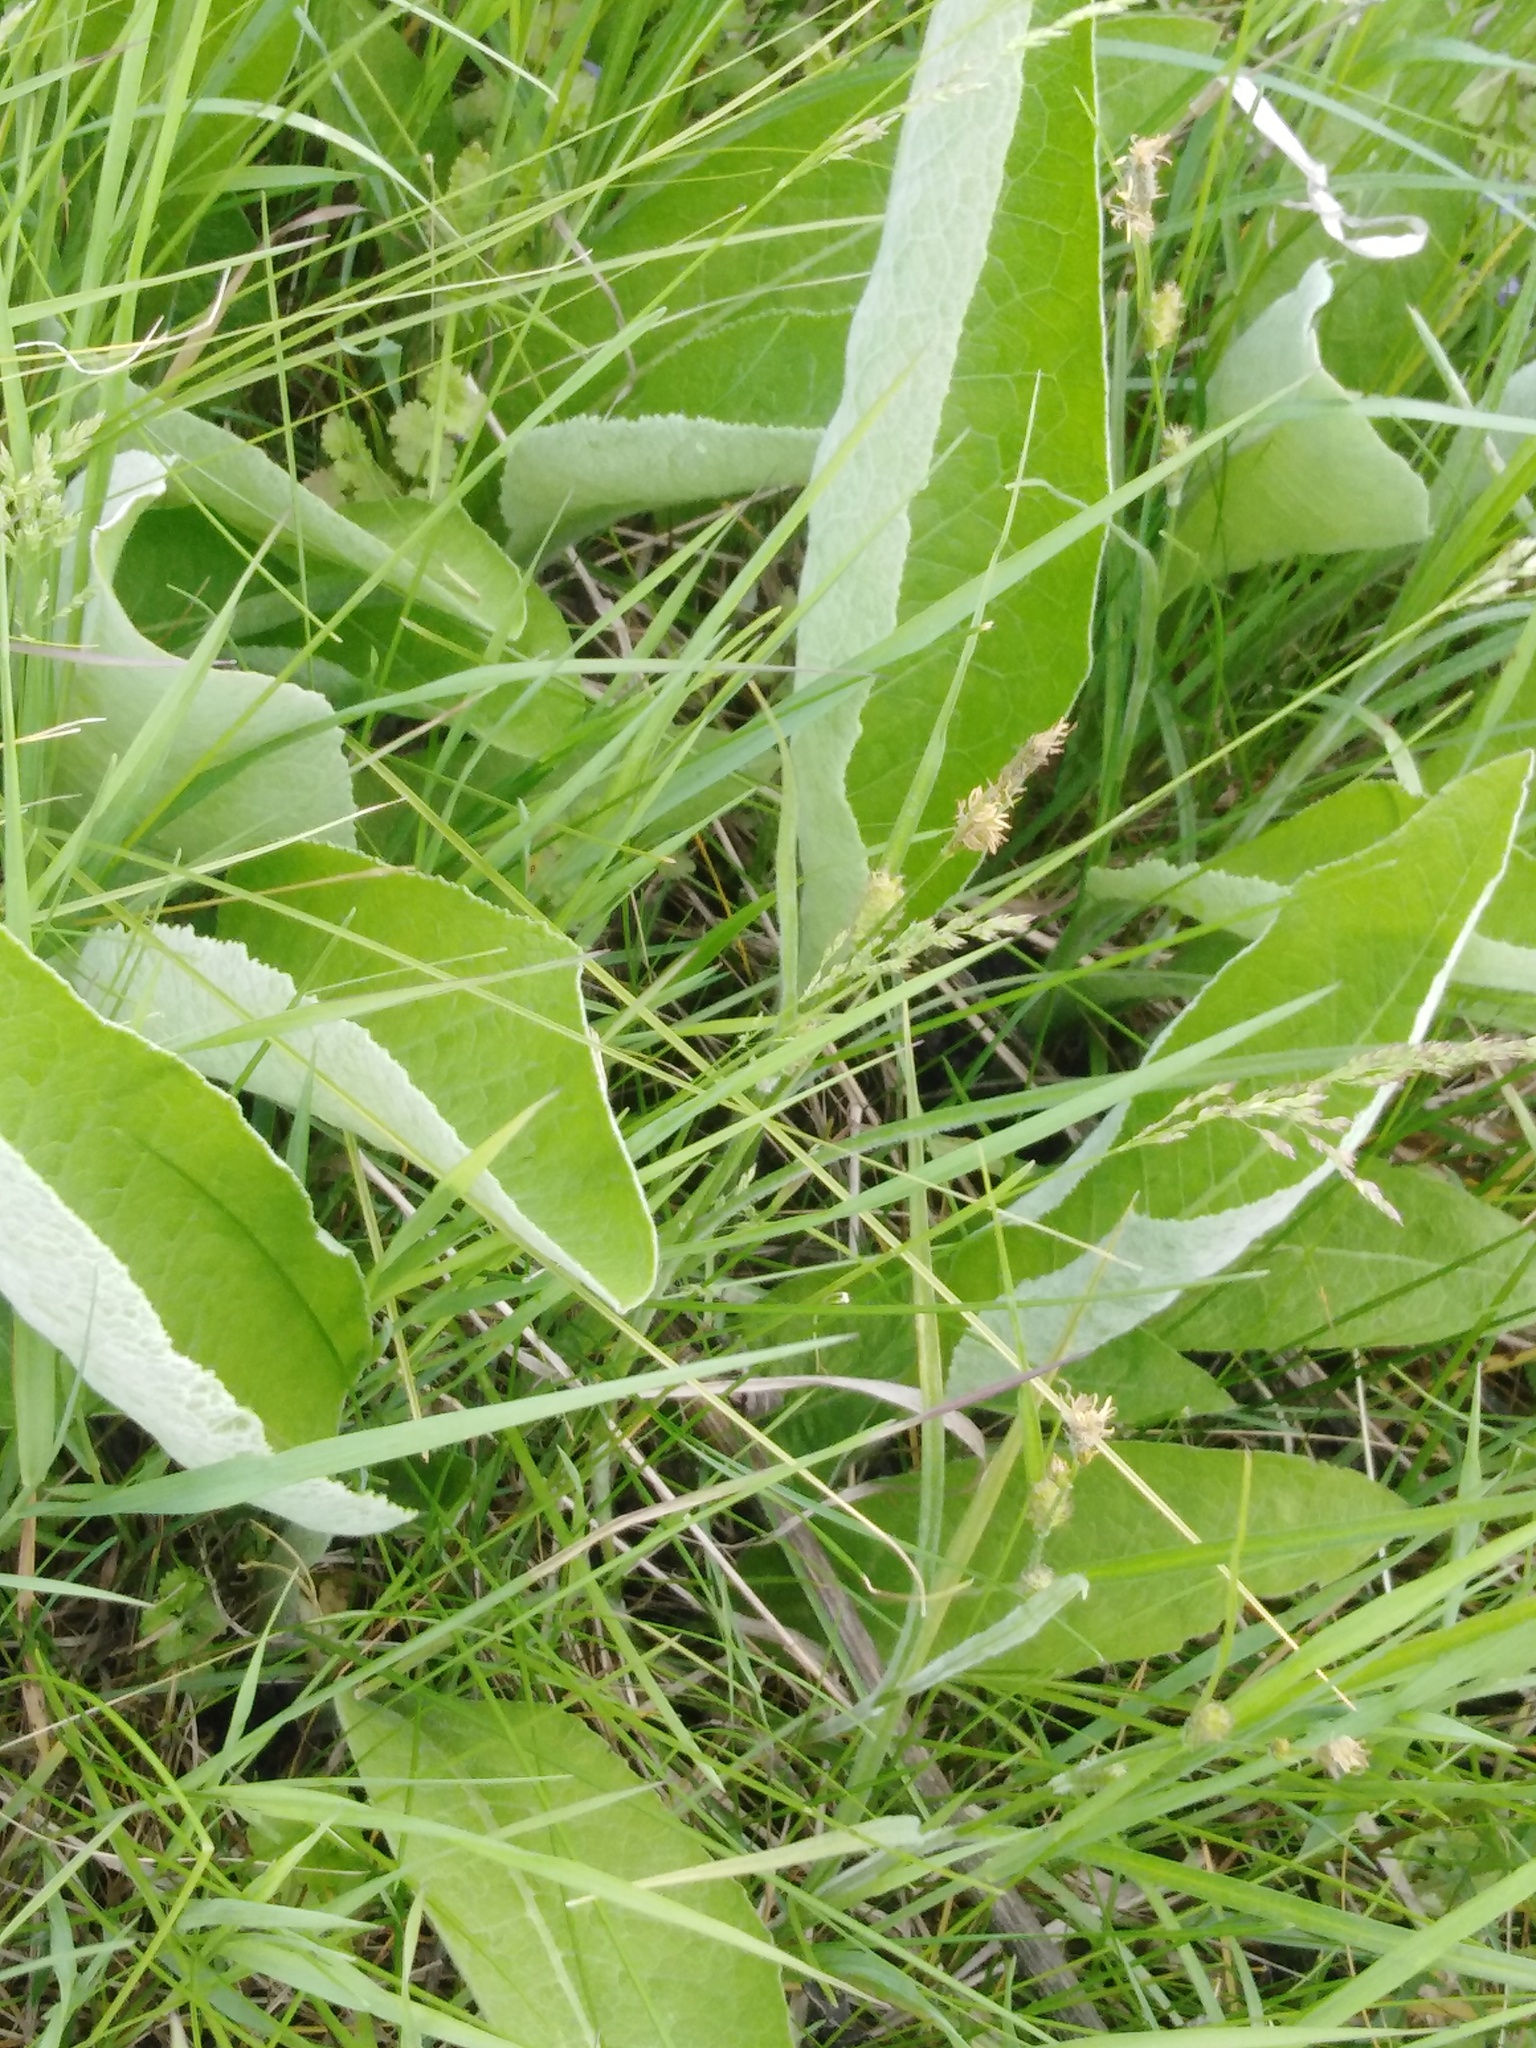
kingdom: Plantae
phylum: Tracheophyta
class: Magnoliopsida
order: Asterales
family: Asteraceae
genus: Inula
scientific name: Inula helenium
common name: Elecampane
